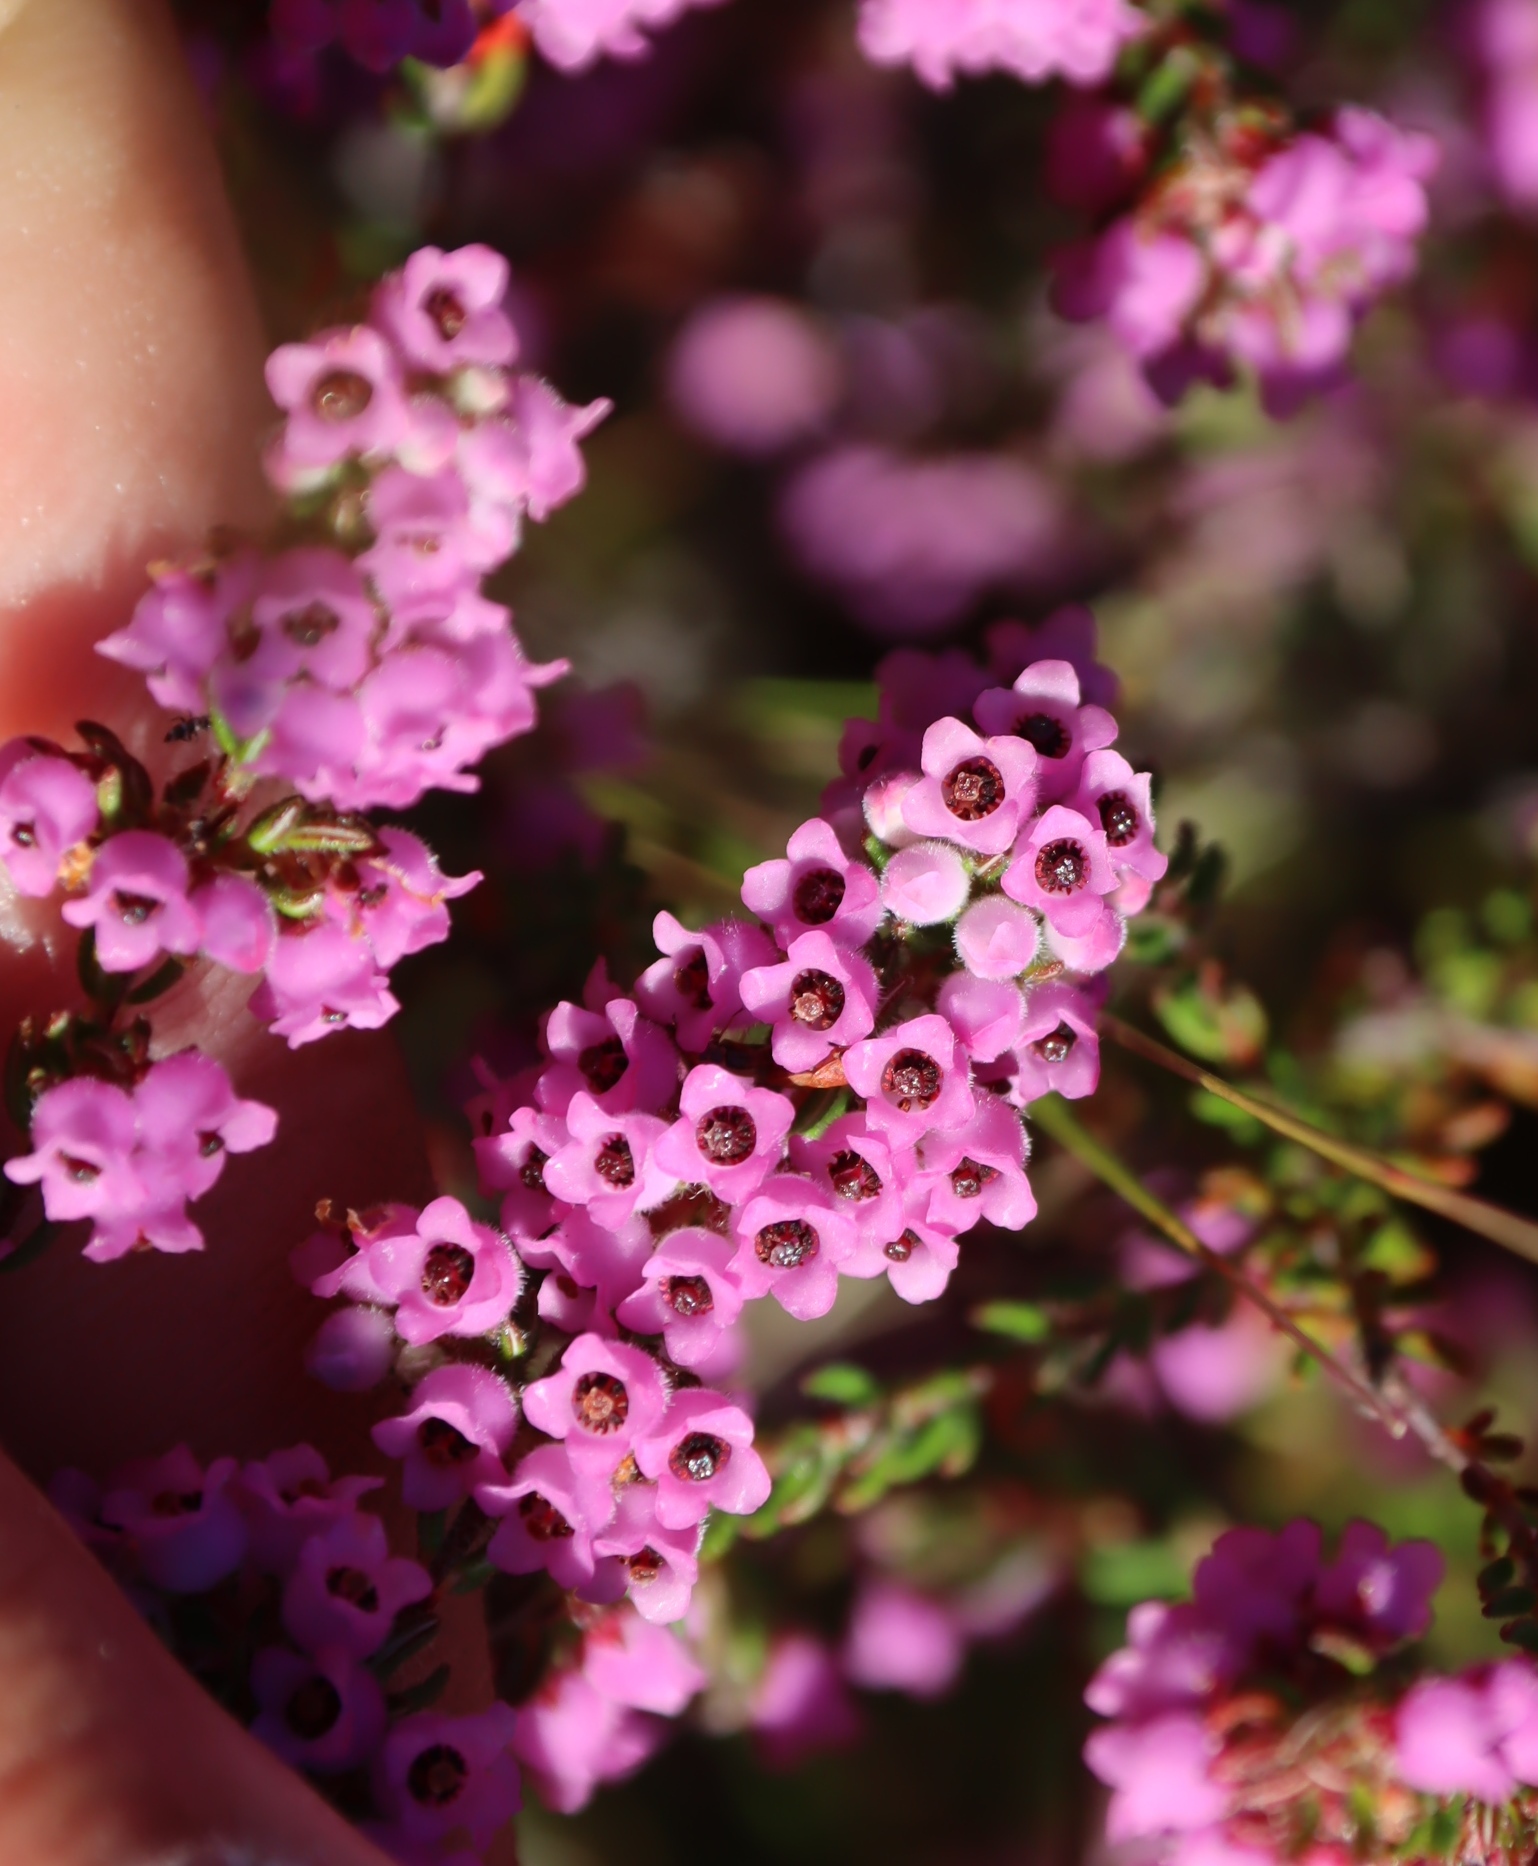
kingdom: Plantae
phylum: Tracheophyta
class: Magnoliopsida
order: Ericales
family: Ericaceae
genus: Erica
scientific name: Erica mollis
